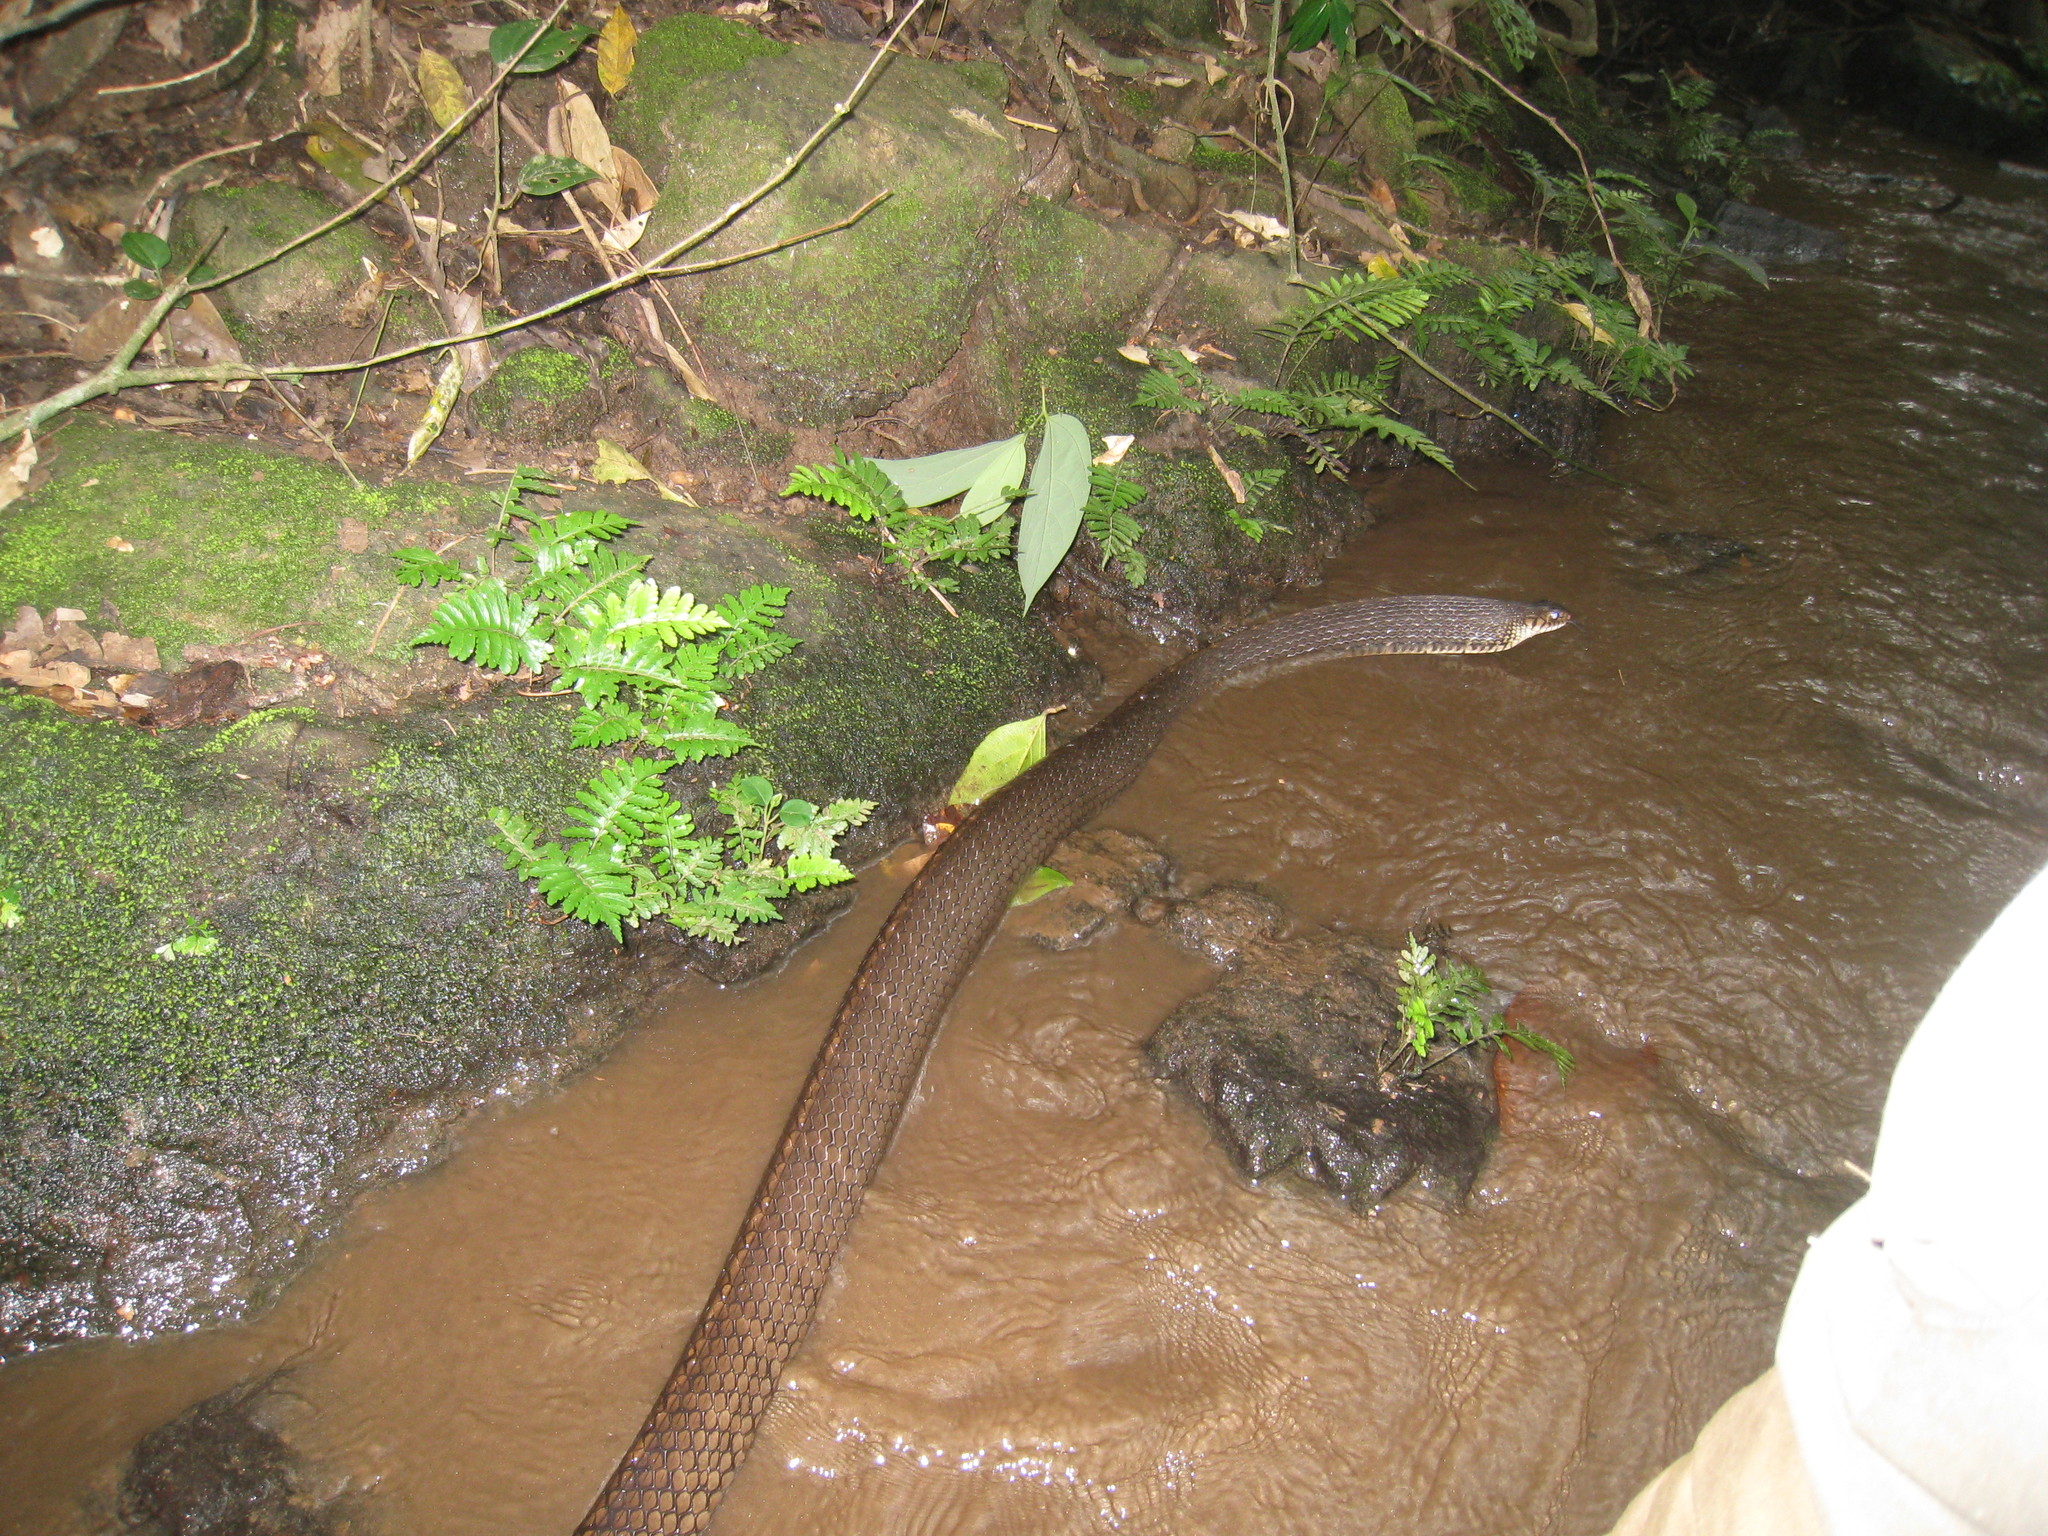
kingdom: Animalia
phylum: Chordata
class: Squamata
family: Colubridae
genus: Ptyas
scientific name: Ptyas mucosa
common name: Oriental ratsnake
